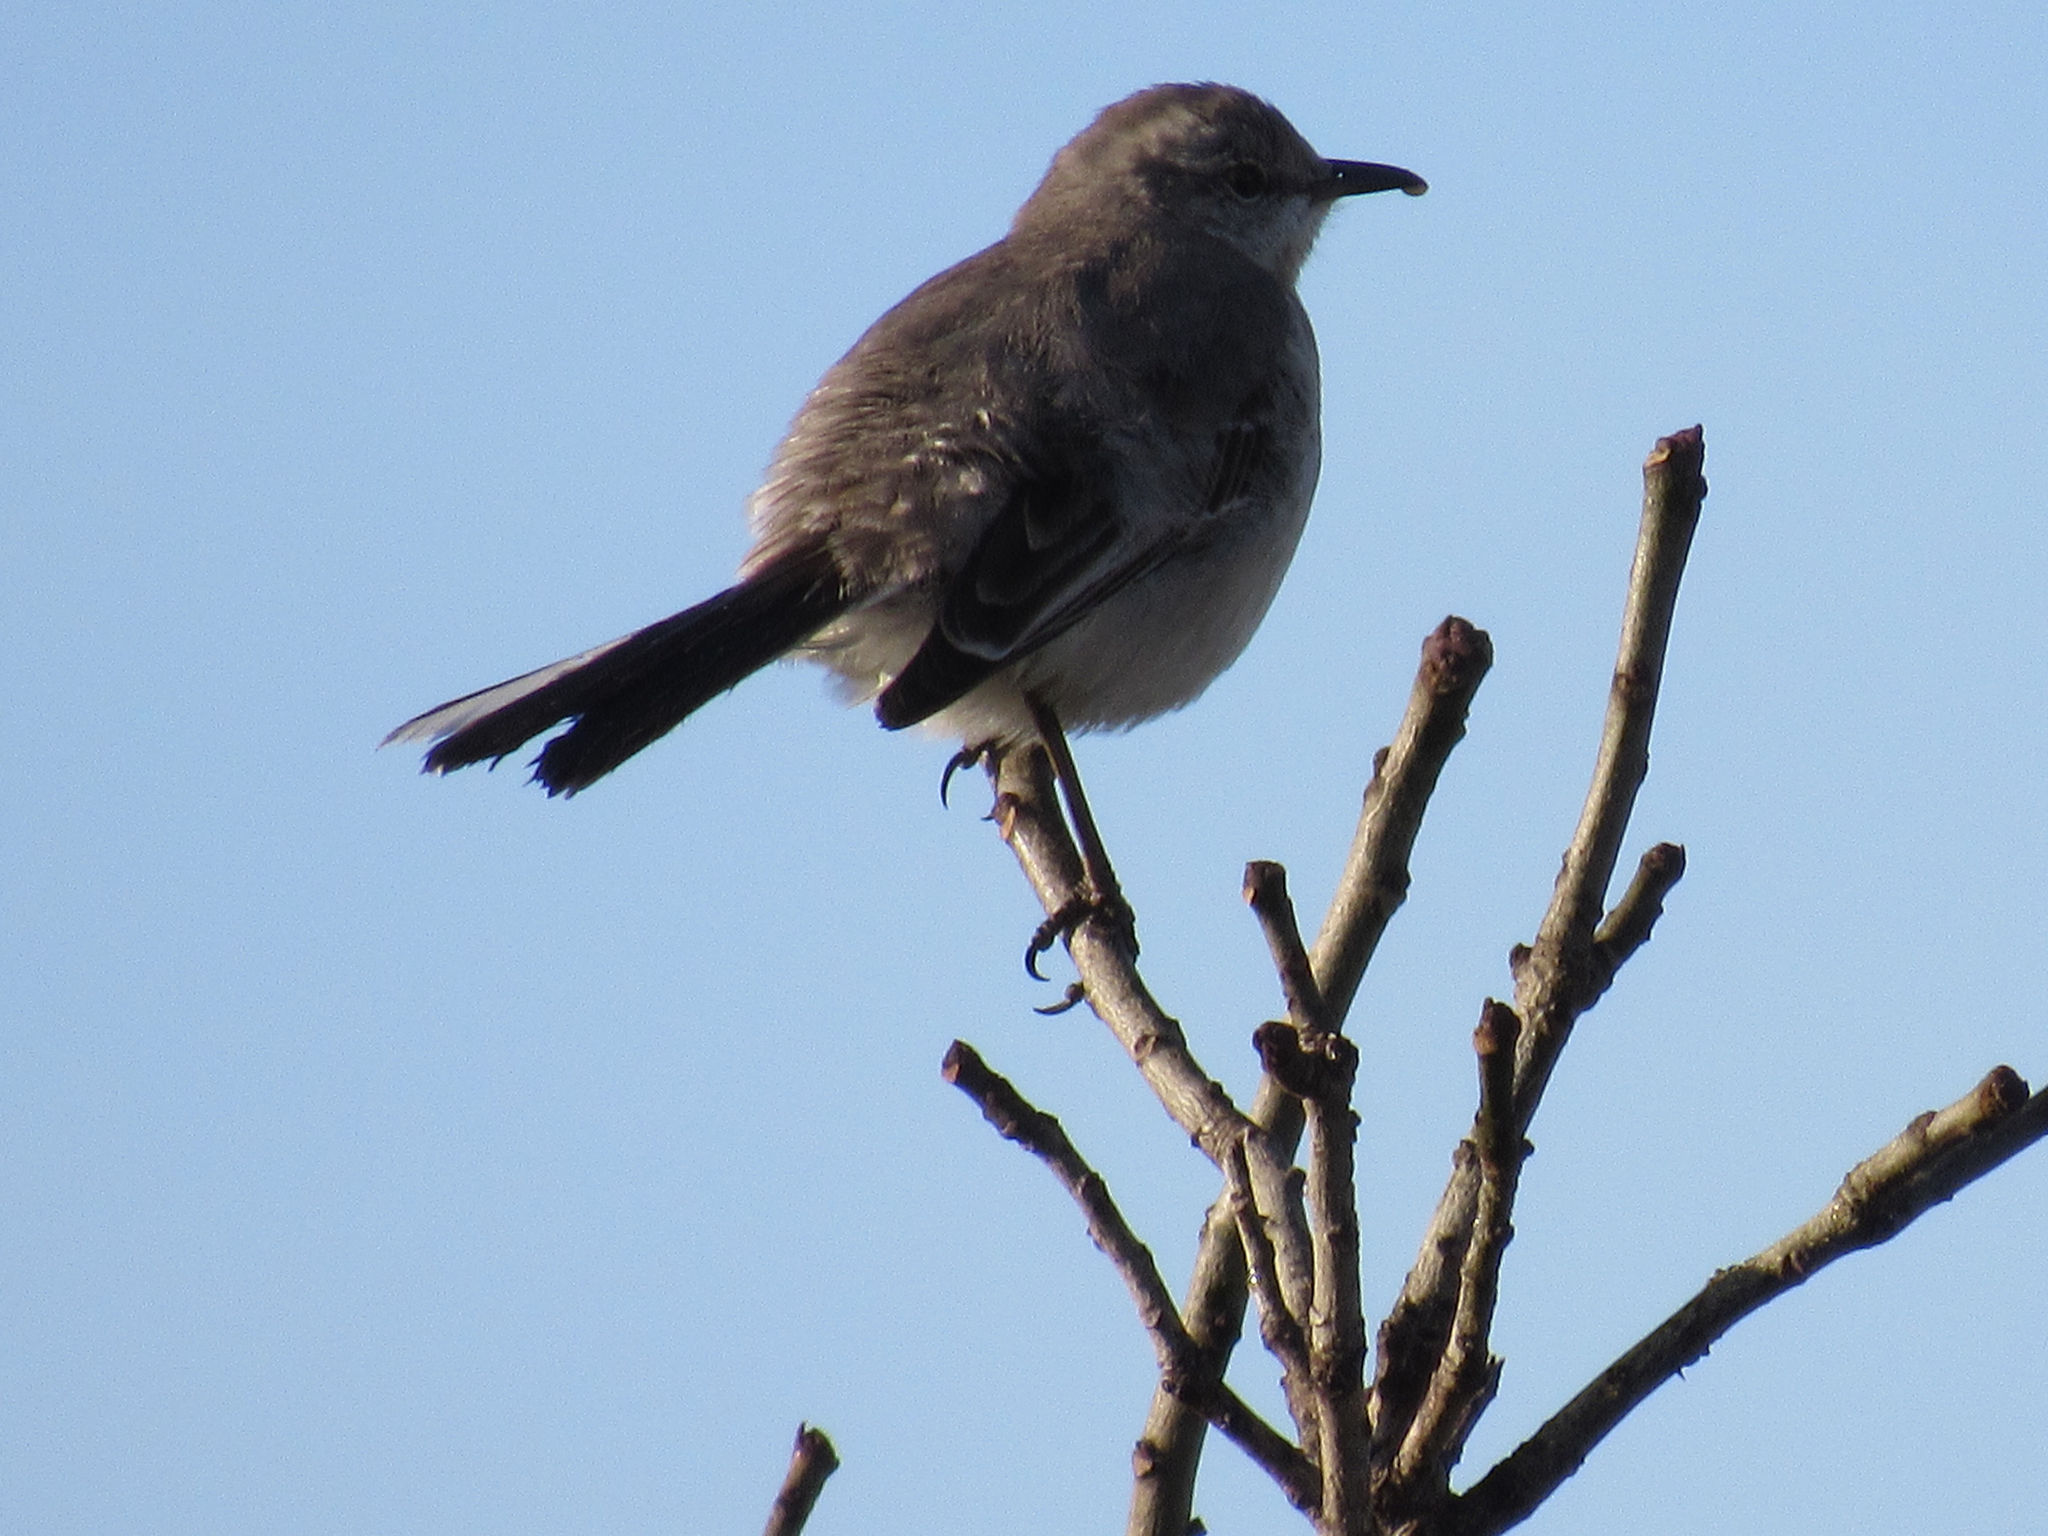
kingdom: Animalia
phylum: Chordata
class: Aves
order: Passeriformes
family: Mimidae
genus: Mimus
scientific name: Mimus polyglottos
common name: Northern mockingbird
